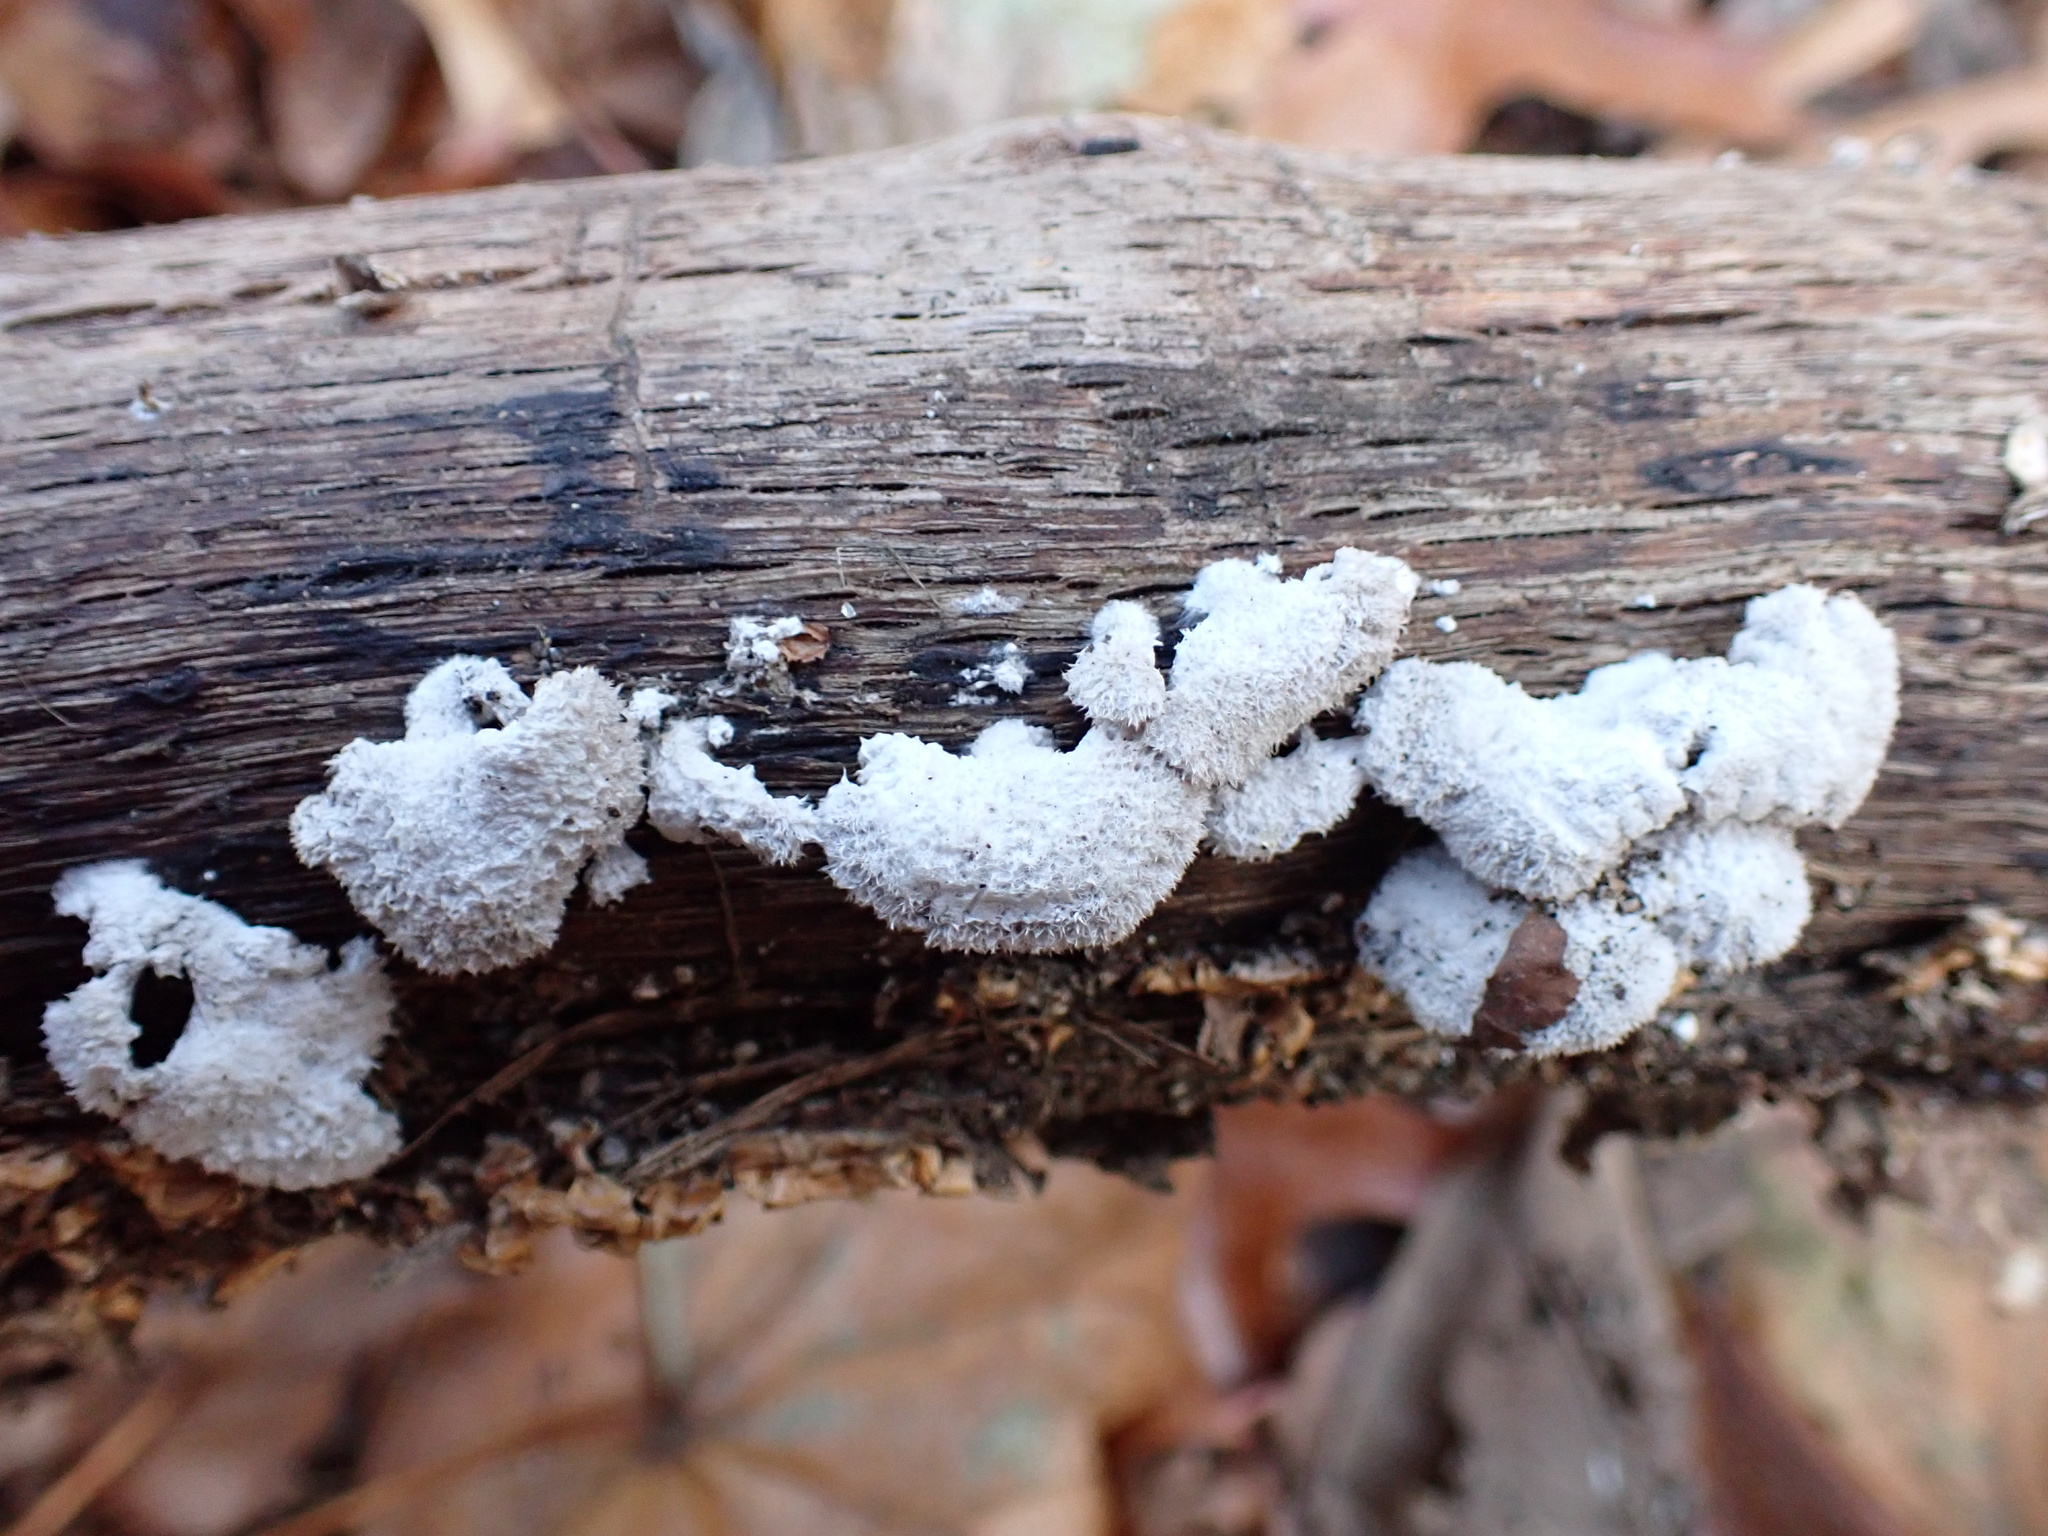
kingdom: Fungi
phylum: Basidiomycota
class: Agaricomycetes
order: Agaricales
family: Schizophyllaceae
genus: Schizophyllum
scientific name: Schizophyllum commune
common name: Common porecrust
